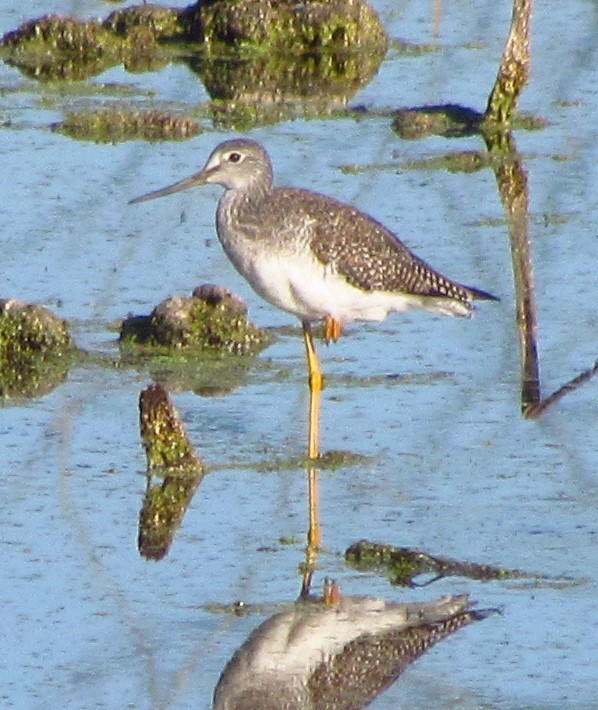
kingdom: Animalia
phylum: Chordata
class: Aves
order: Charadriiformes
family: Scolopacidae
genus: Tringa
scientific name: Tringa melanoleuca
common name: Greater yellowlegs
